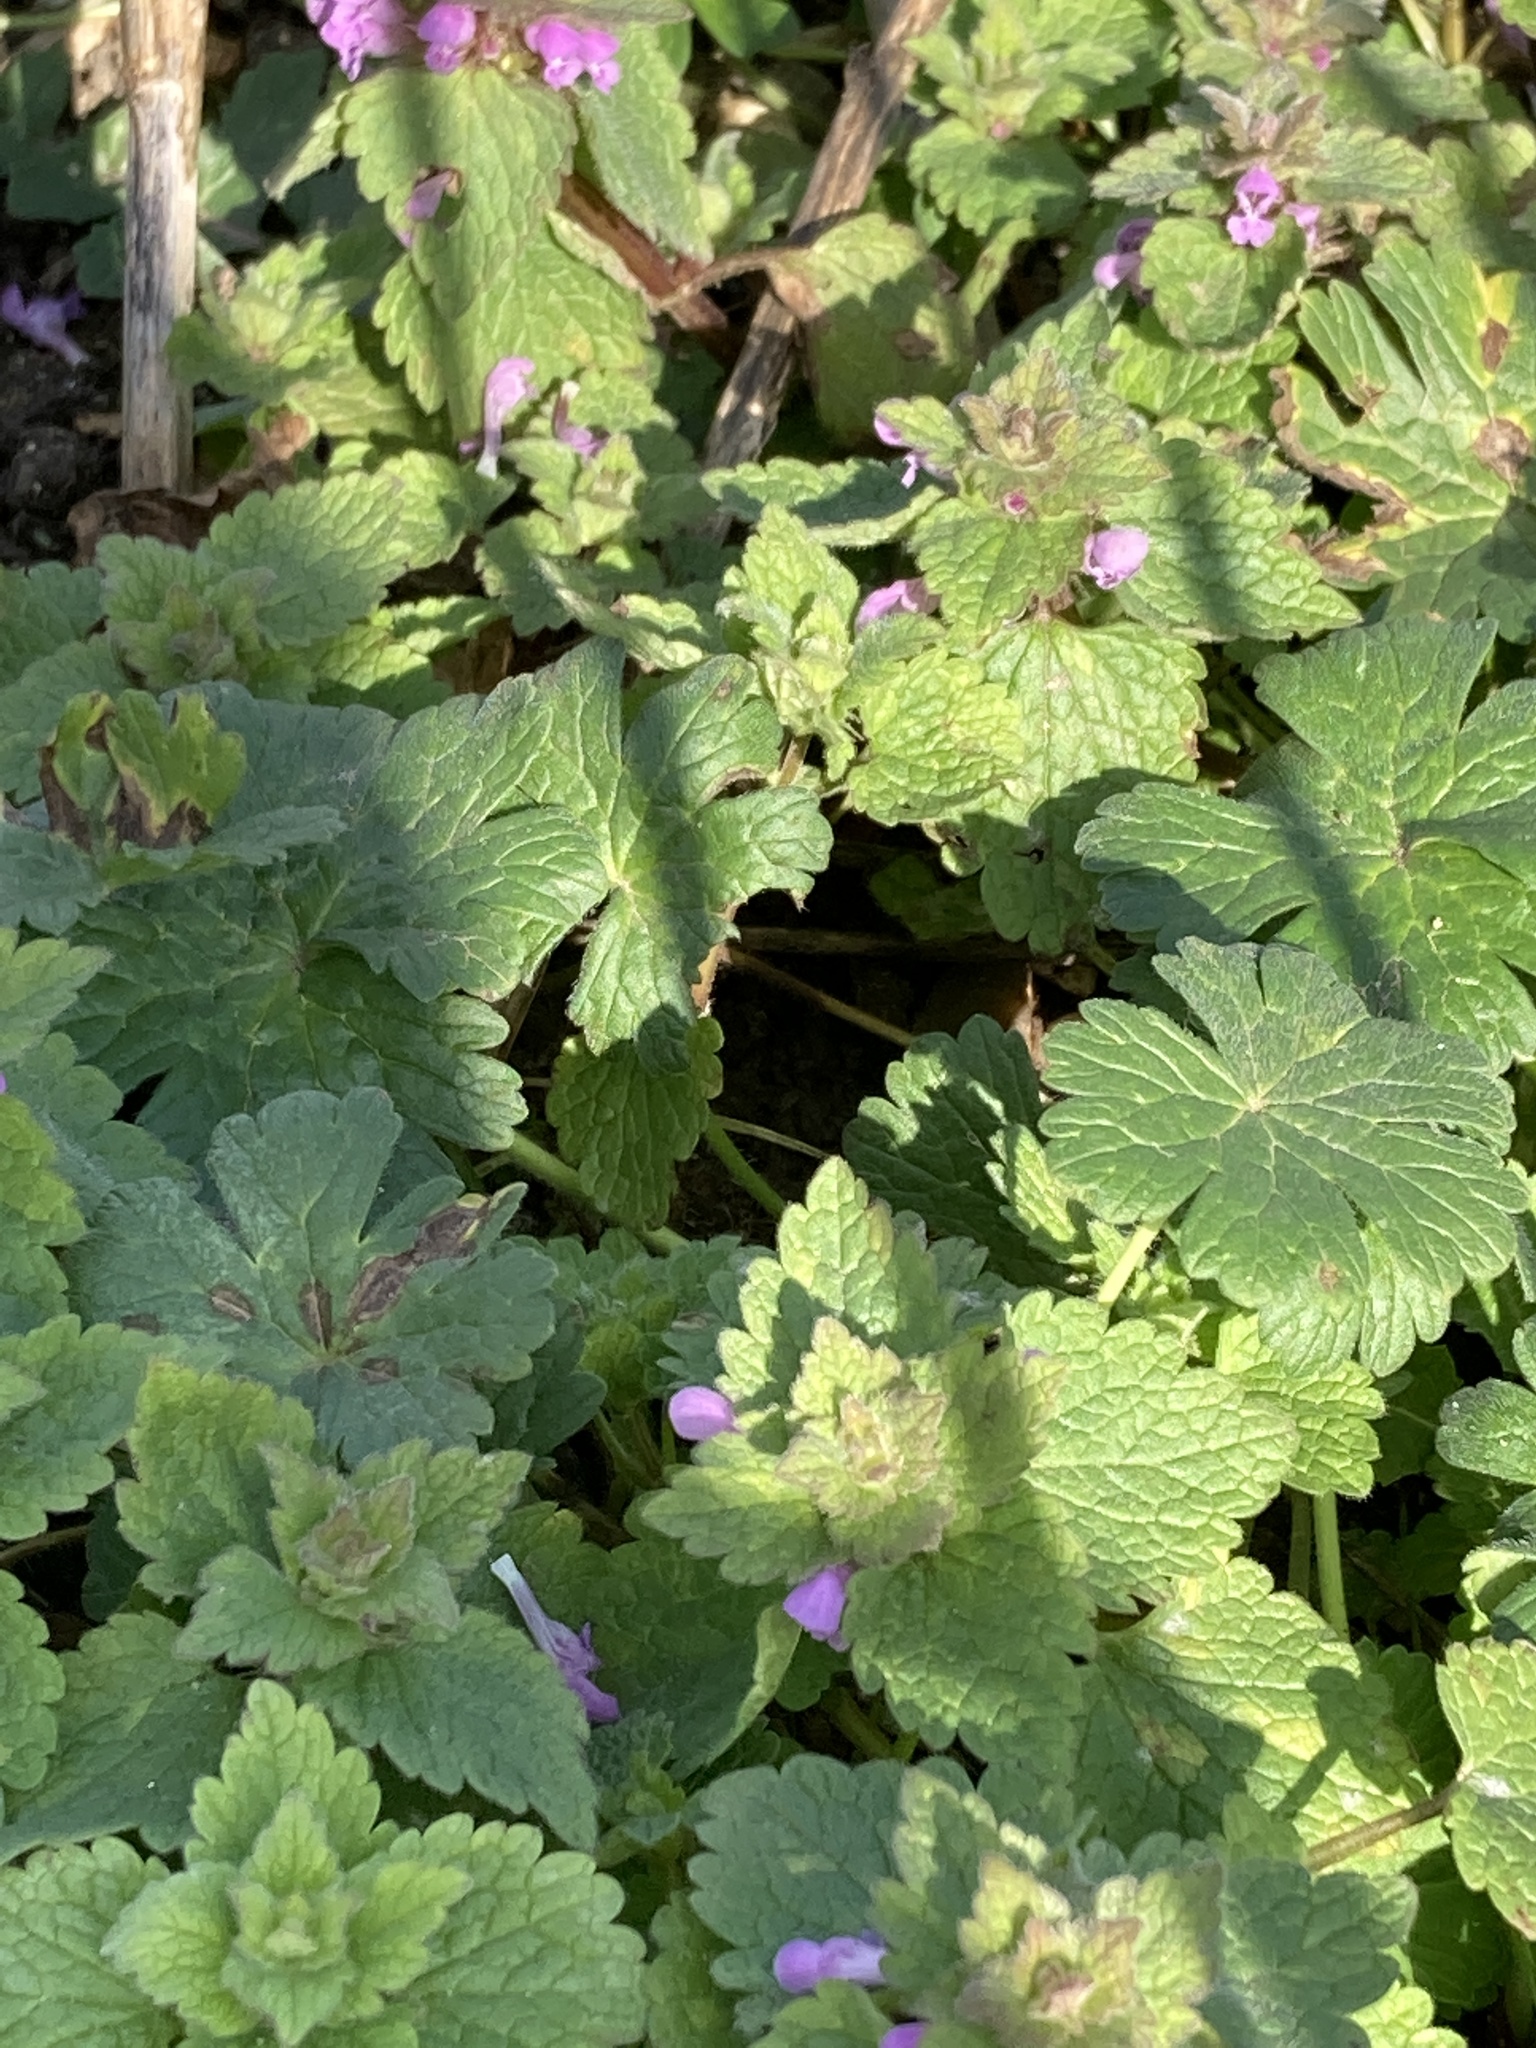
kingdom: Plantae
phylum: Tracheophyta
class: Magnoliopsida
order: Lamiales
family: Lamiaceae
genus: Lamium
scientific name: Lamium purpureum
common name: Red dead-nettle
